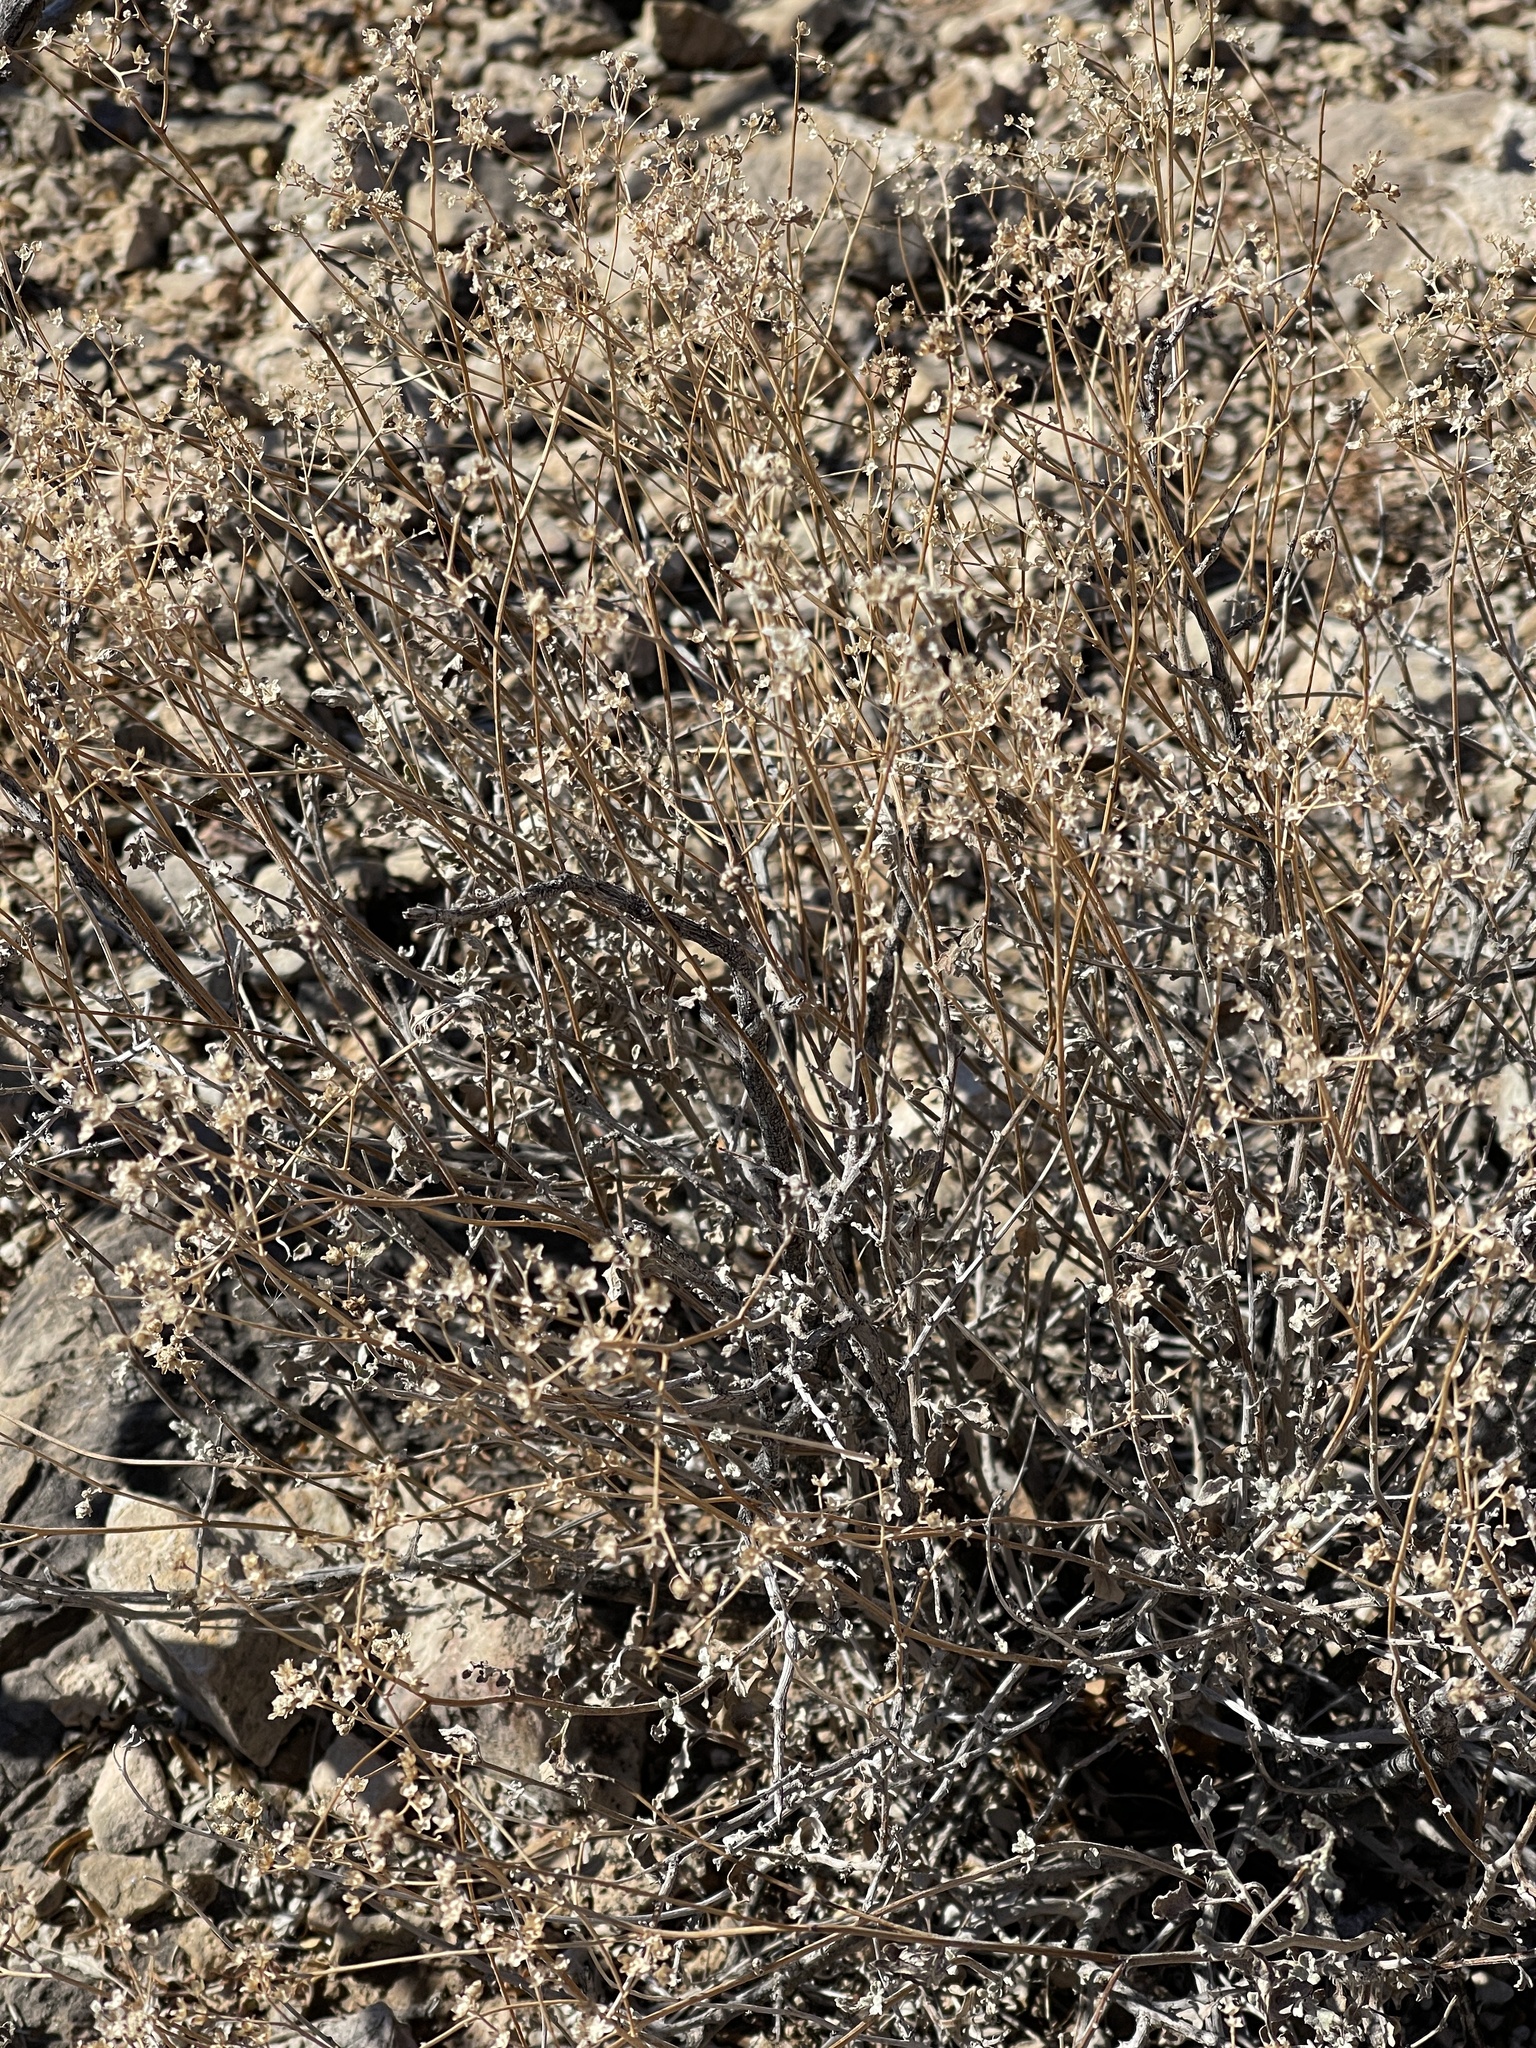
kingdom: Plantae
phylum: Tracheophyta
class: Magnoliopsida
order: Asterales
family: Asteraceae
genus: Parthenium
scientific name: Parthenium incanum
